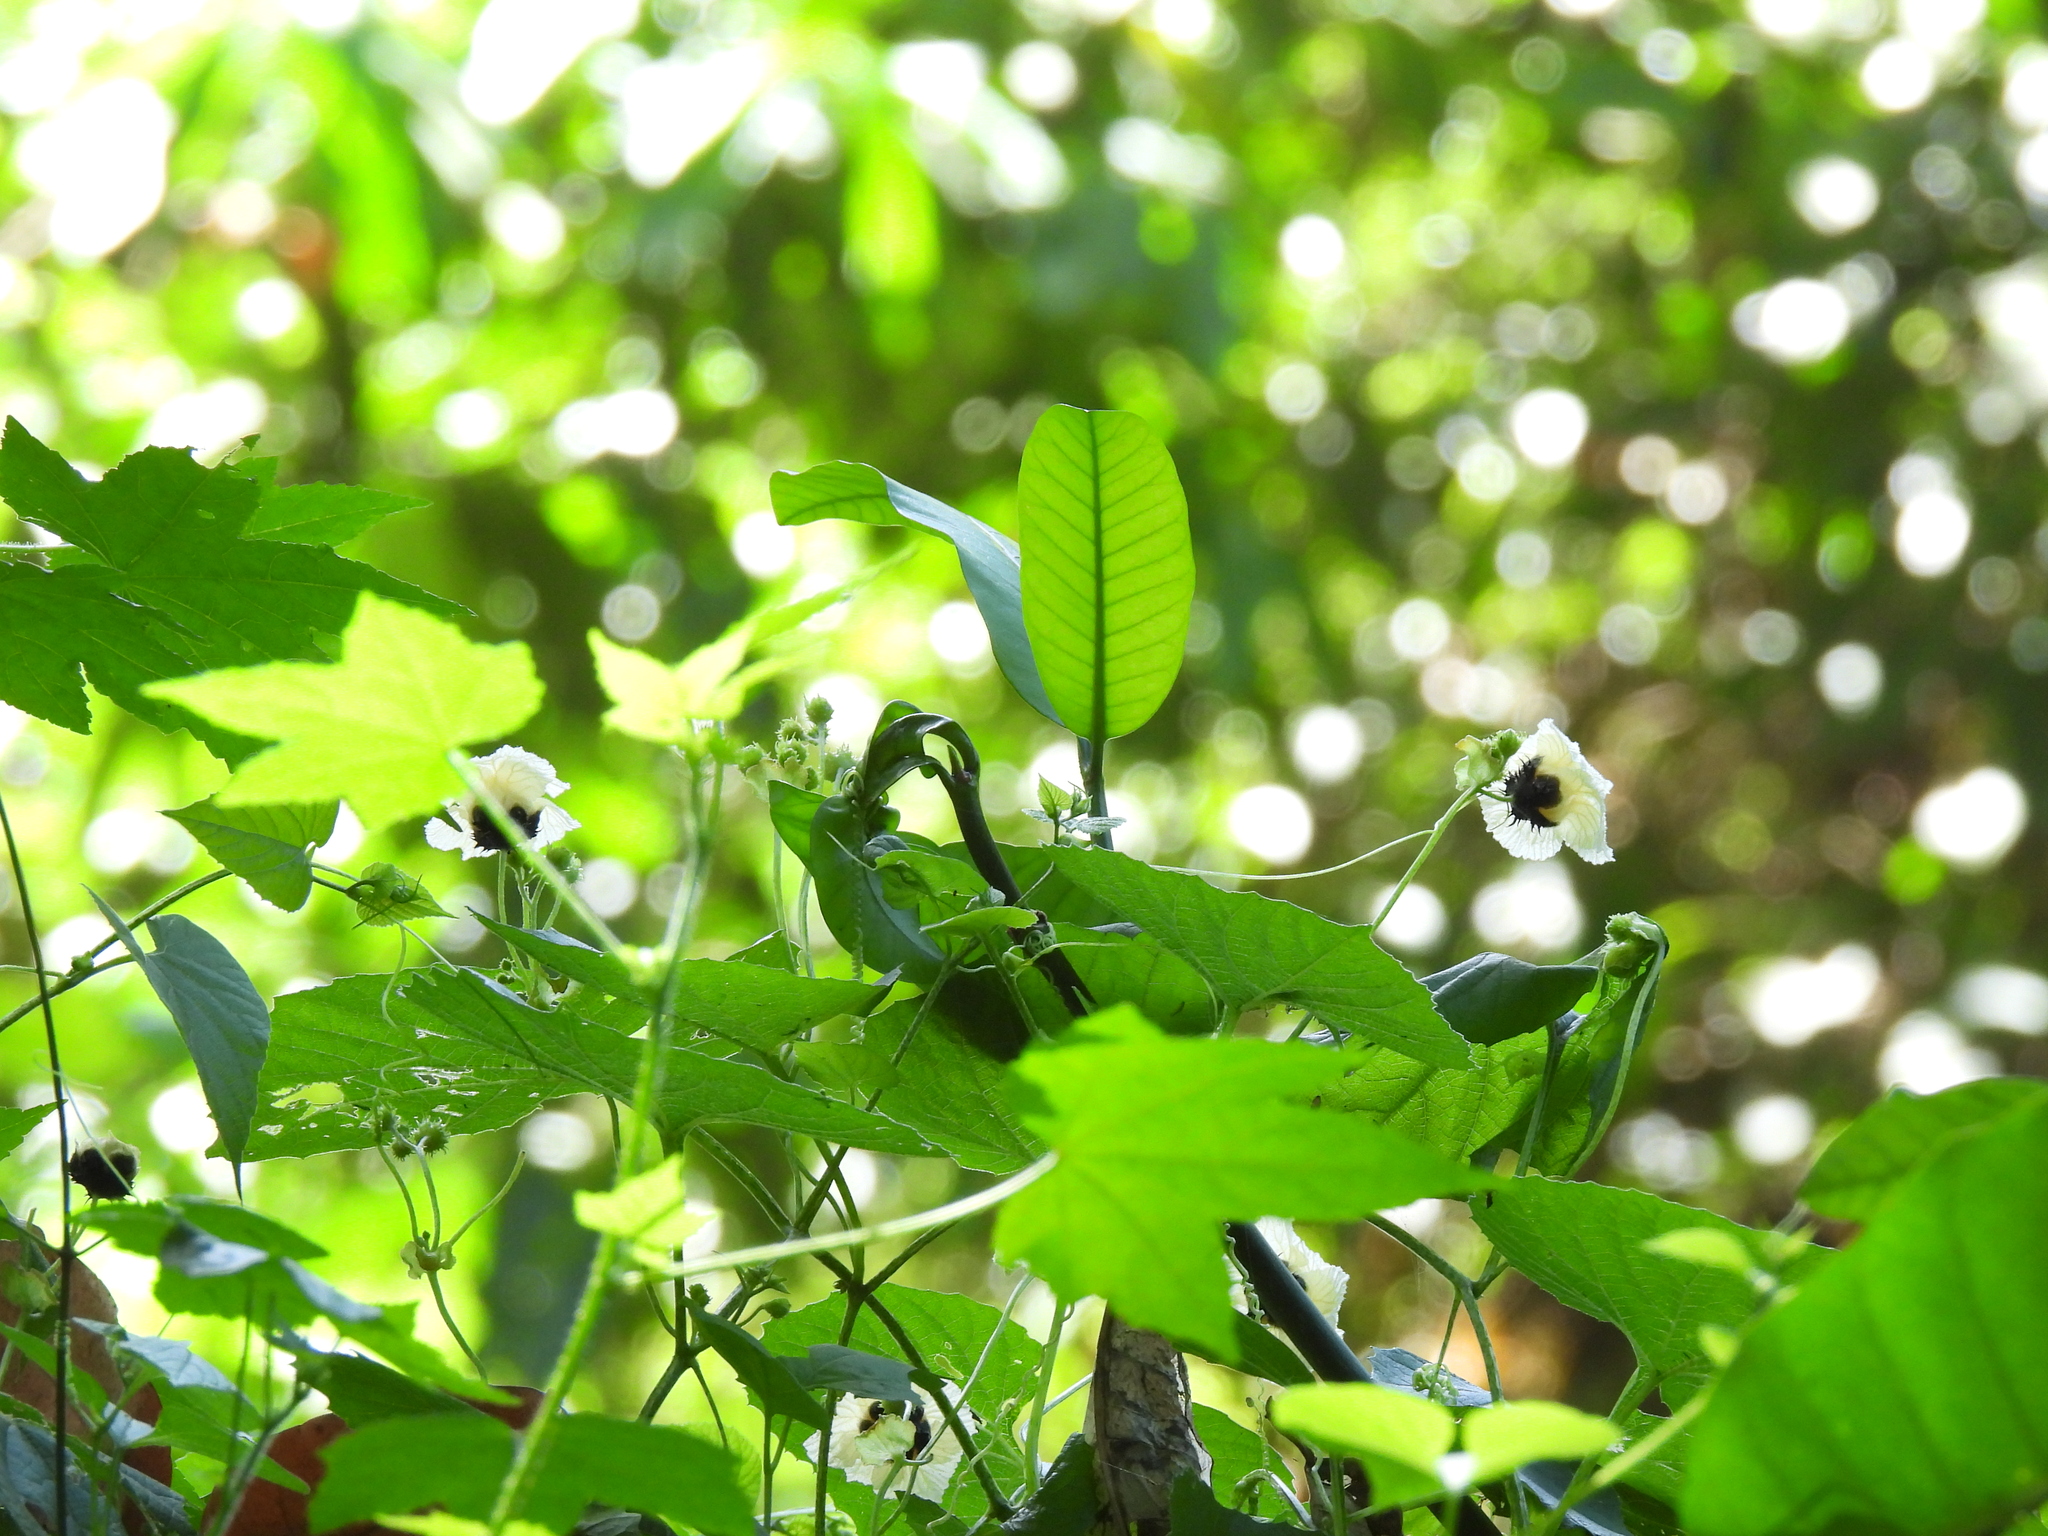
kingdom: Plantae
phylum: Tracheophyta
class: Magnoliopsida
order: Cucurbitales
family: Cucurbitaceae
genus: Momordica
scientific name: Momordica foetida
